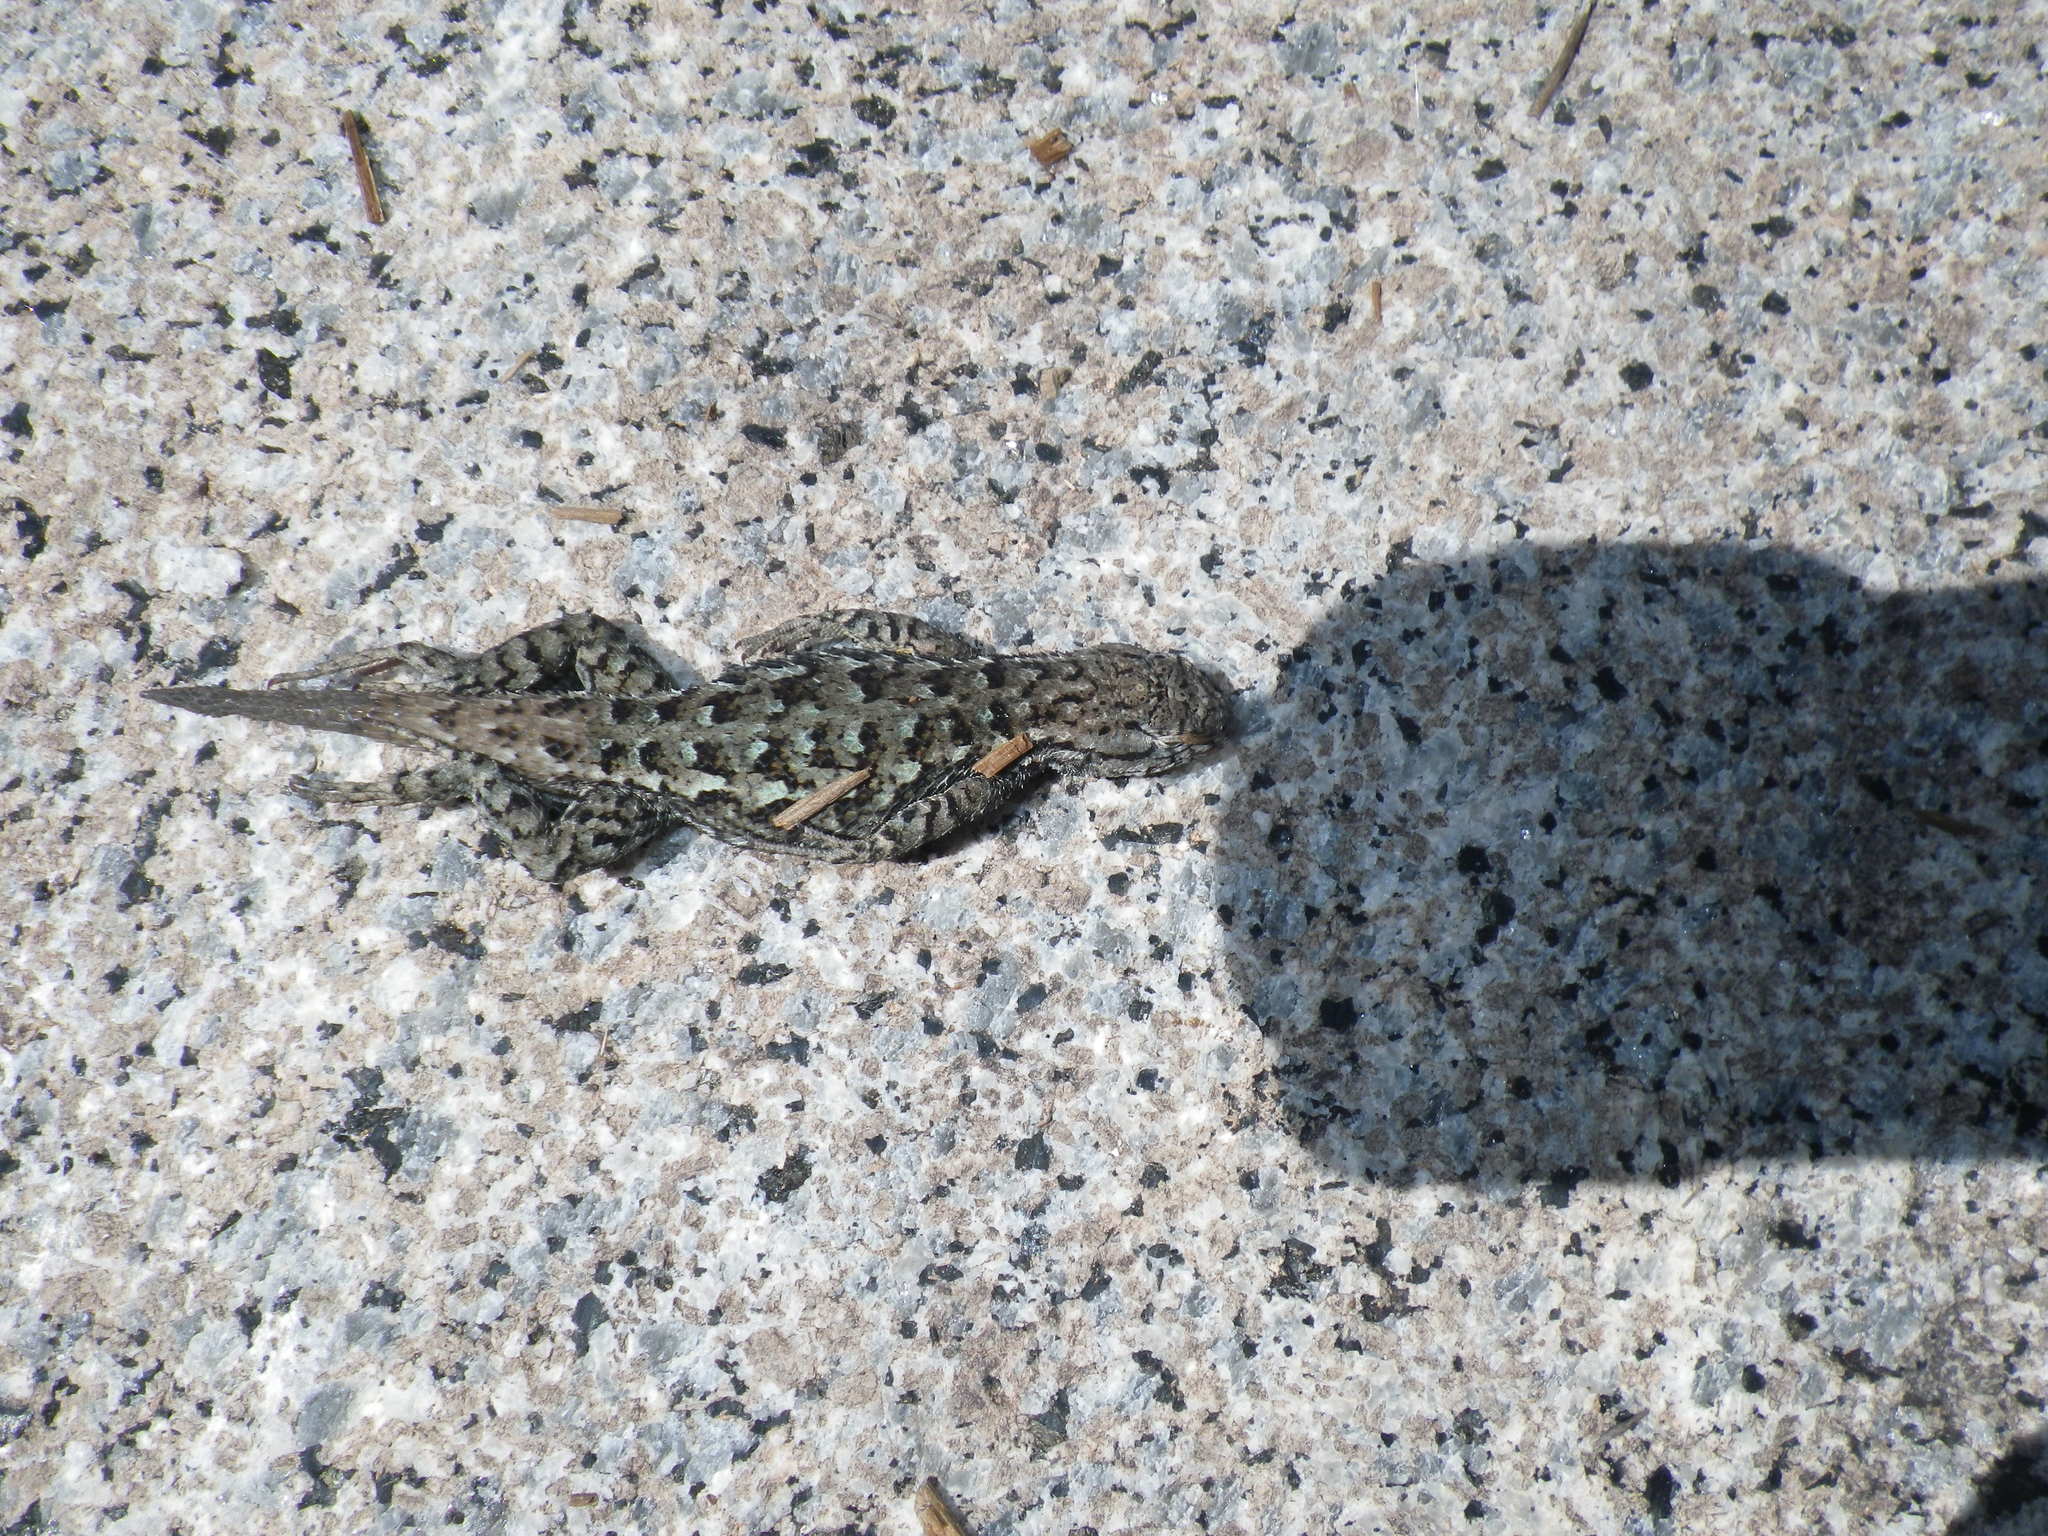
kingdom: Animalia
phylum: Chordata
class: Squamata
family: Phrynosomatidae
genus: Sceloporus
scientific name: Sceloporus occidentalis
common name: Western fence lizard
